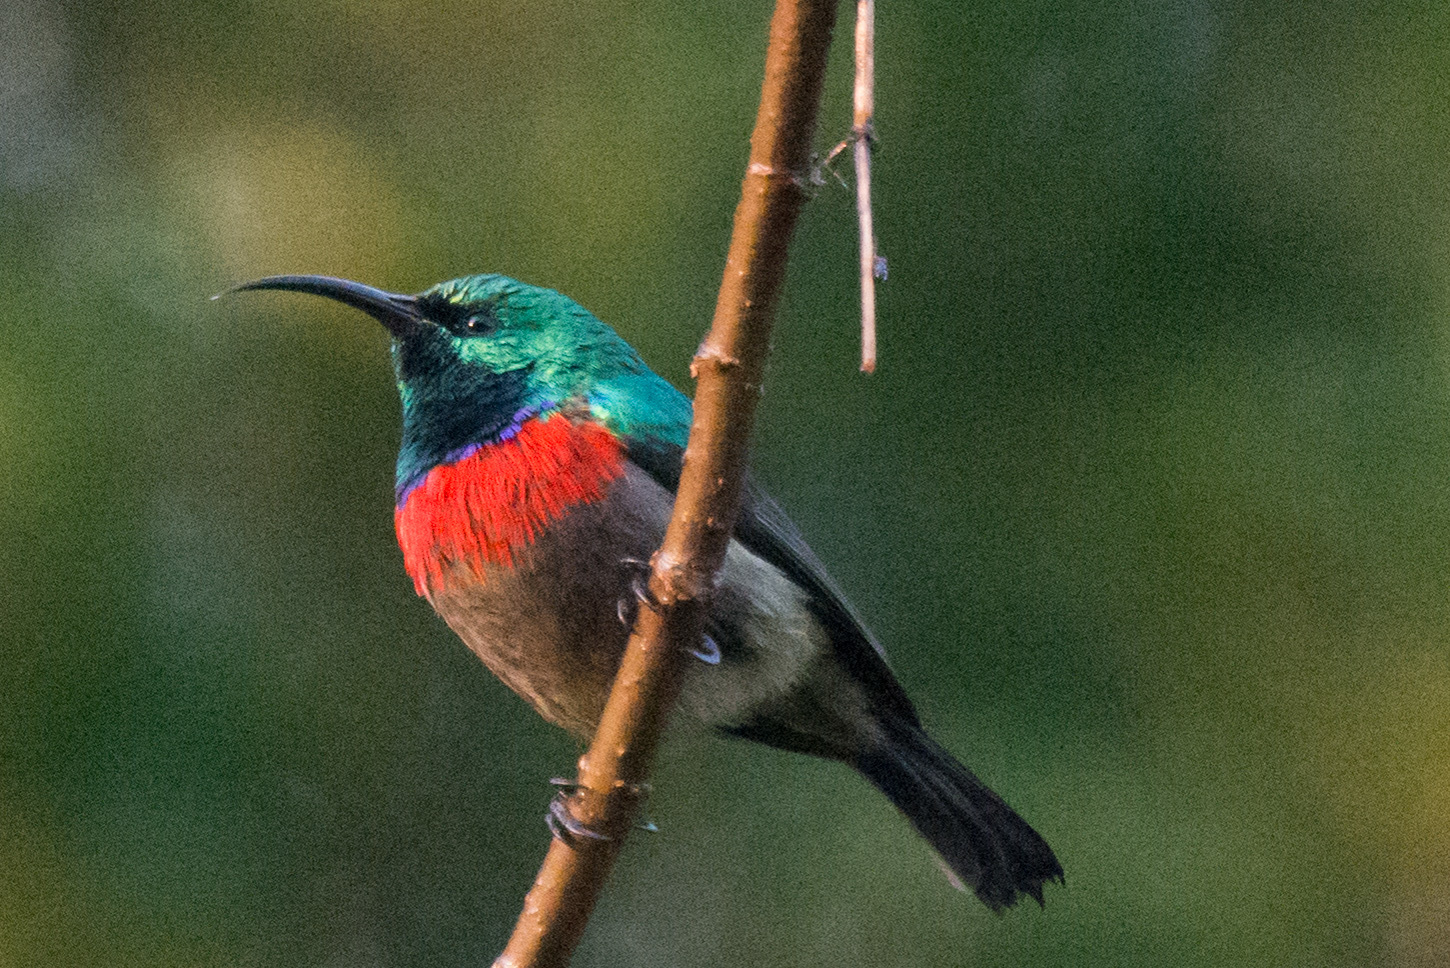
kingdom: Animalia
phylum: Chordata
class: Aves
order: Passeriformes
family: Nectariniidae
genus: Cinnyris
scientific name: Cinnyris chalybeus
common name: Southern double-collared sunbird
